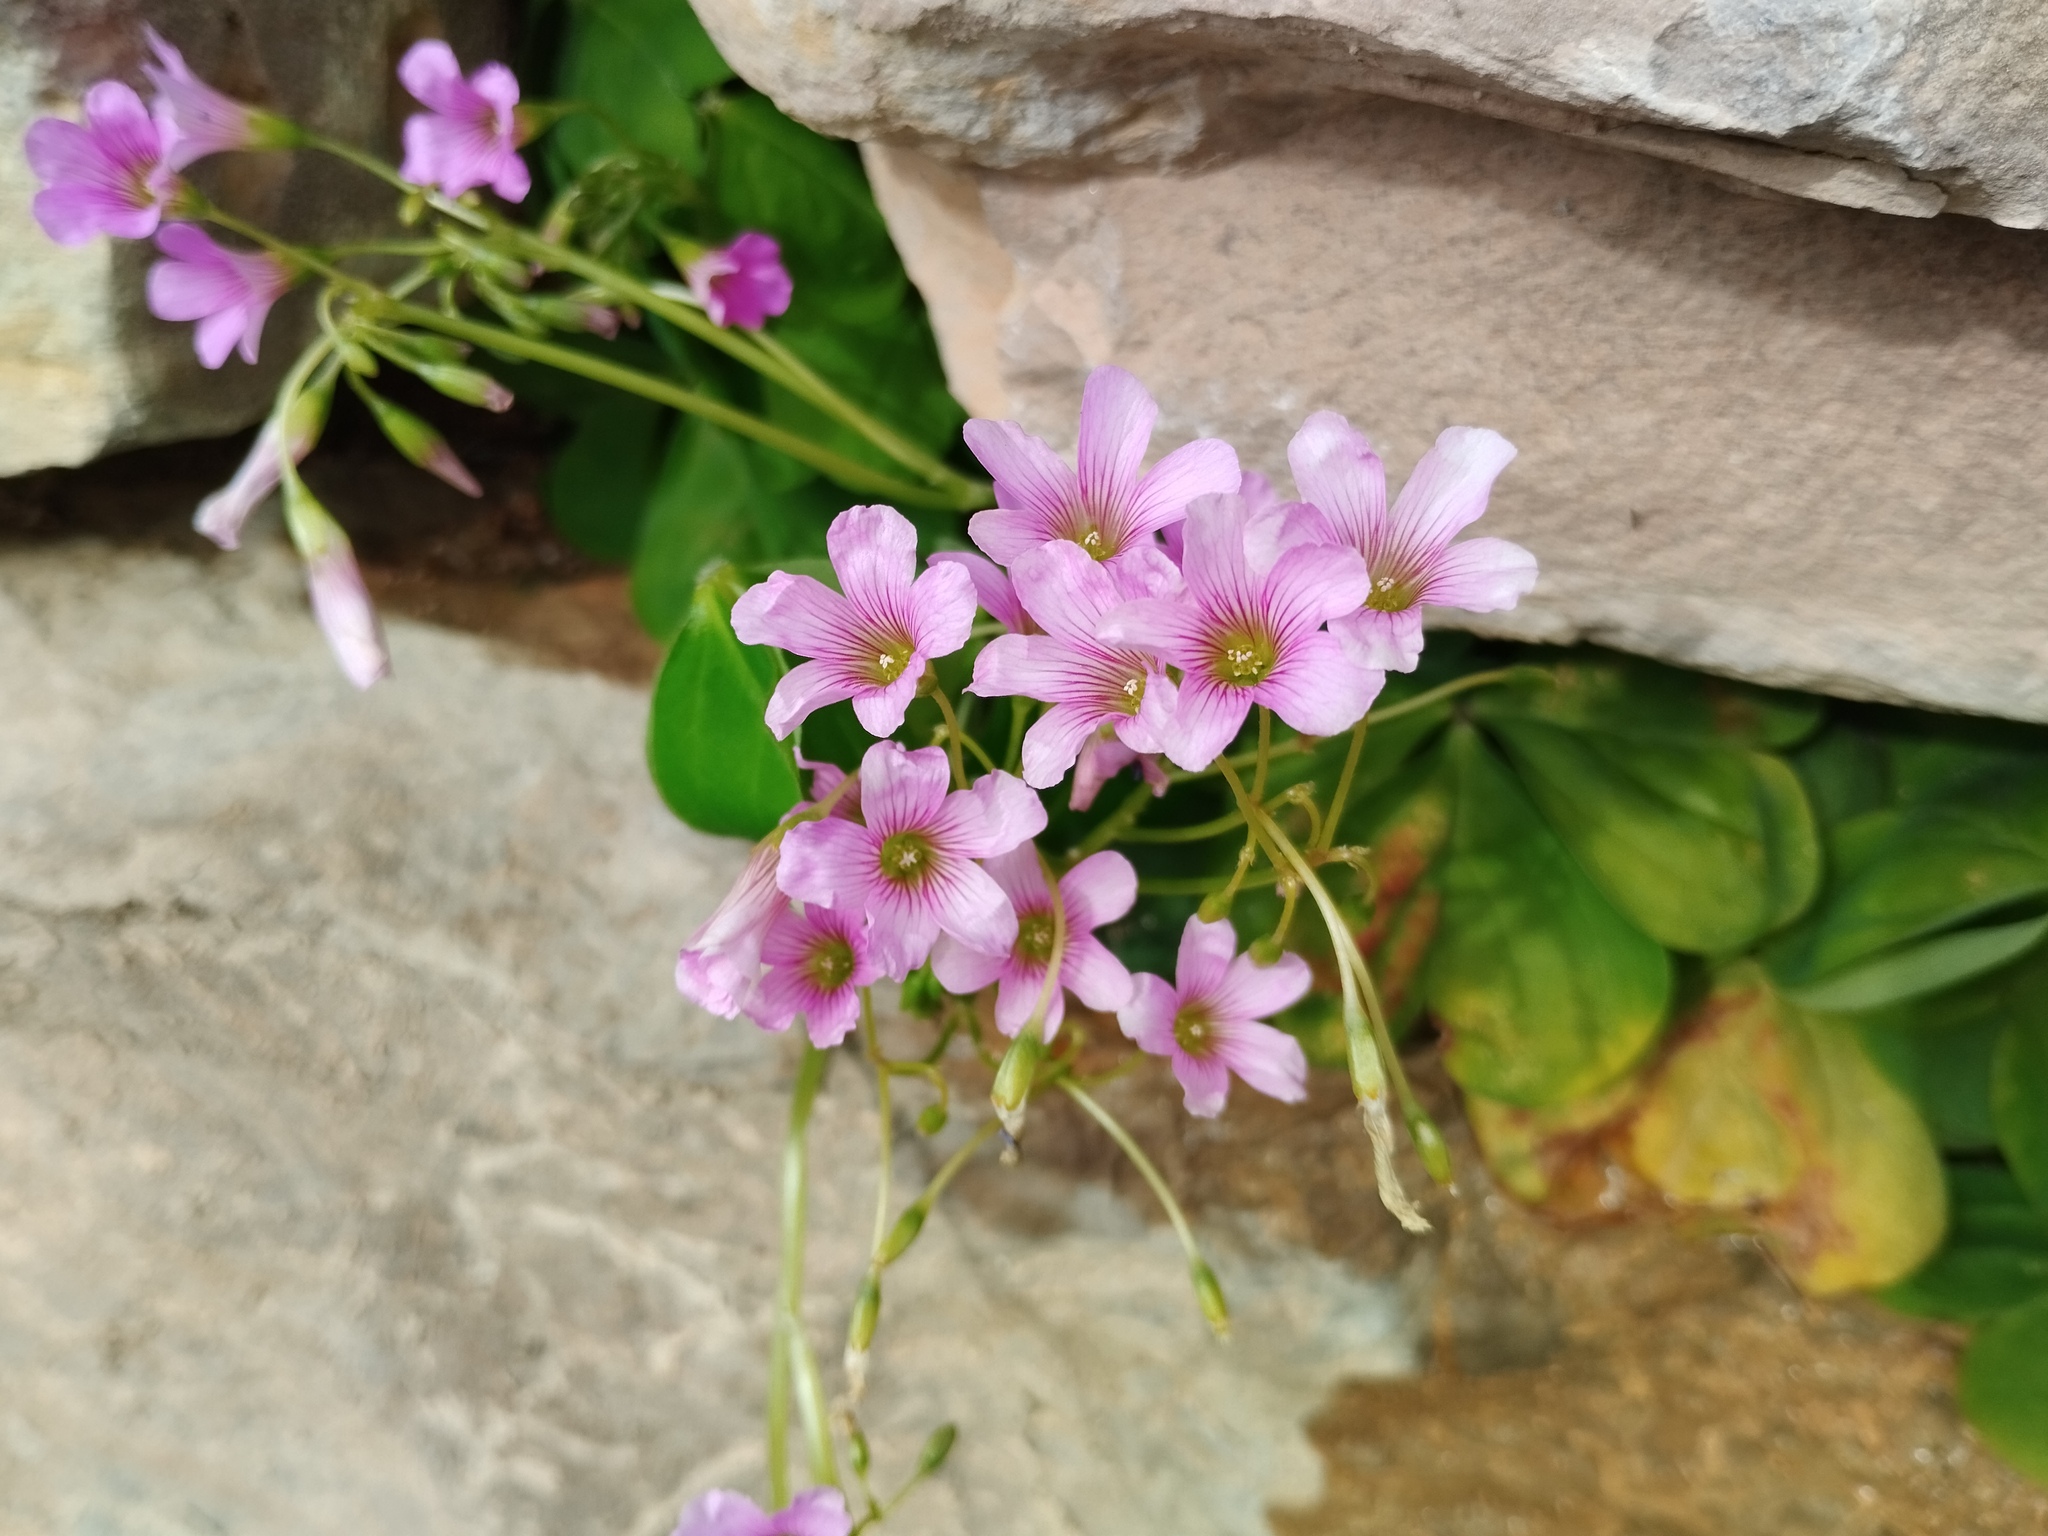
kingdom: Plantae
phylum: Tracheophyta
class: Magnoliopsida
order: Oxalidales
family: Oxalidaceae
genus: Oxalis
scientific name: Oxalis debilis
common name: Large-flowered pink-sorrel
